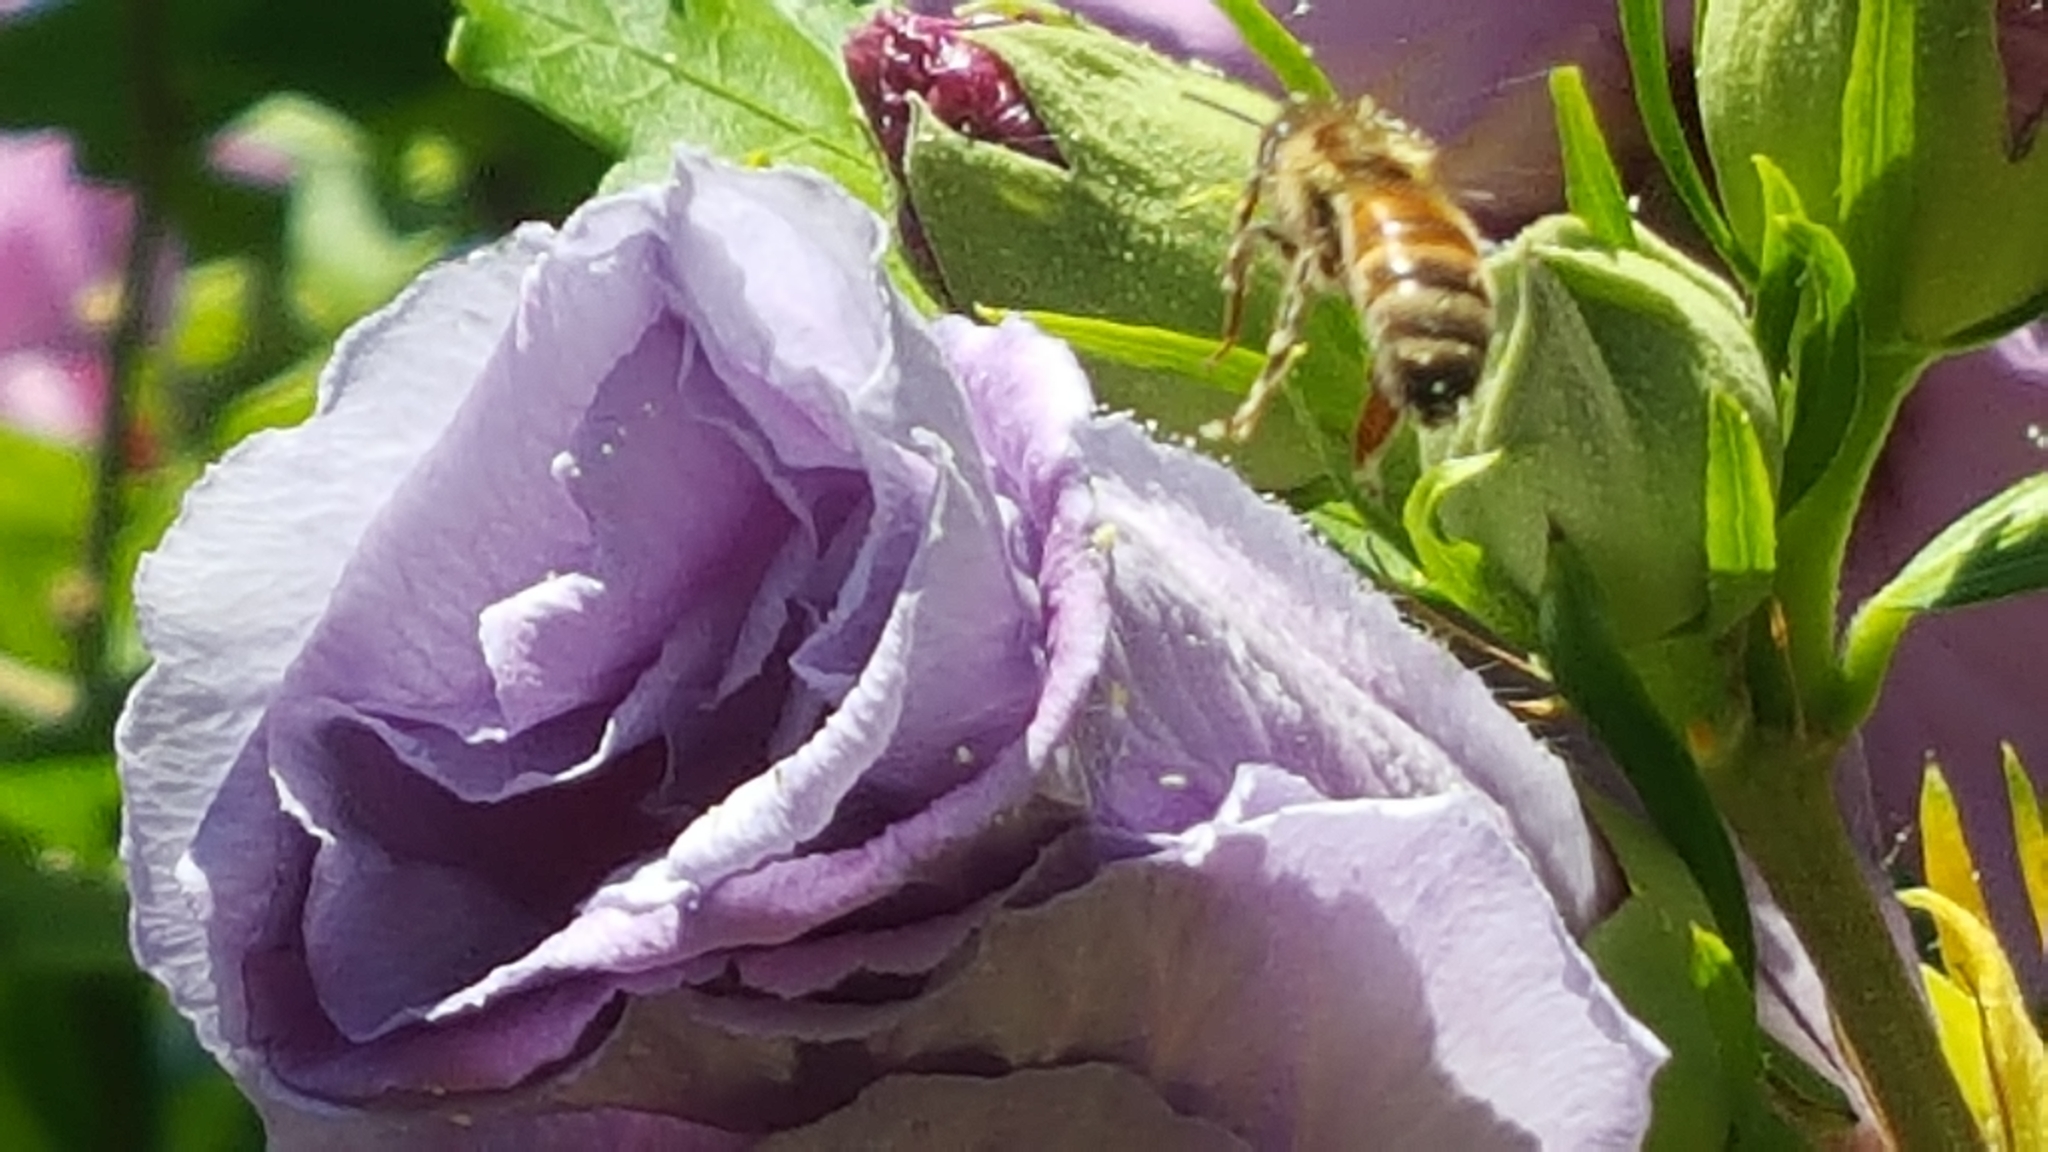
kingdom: Animalia
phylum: Arthropoda
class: Insecta
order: Hymenoptera
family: Apidae
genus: Apis
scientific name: Apis mellifera
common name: Honey bee
